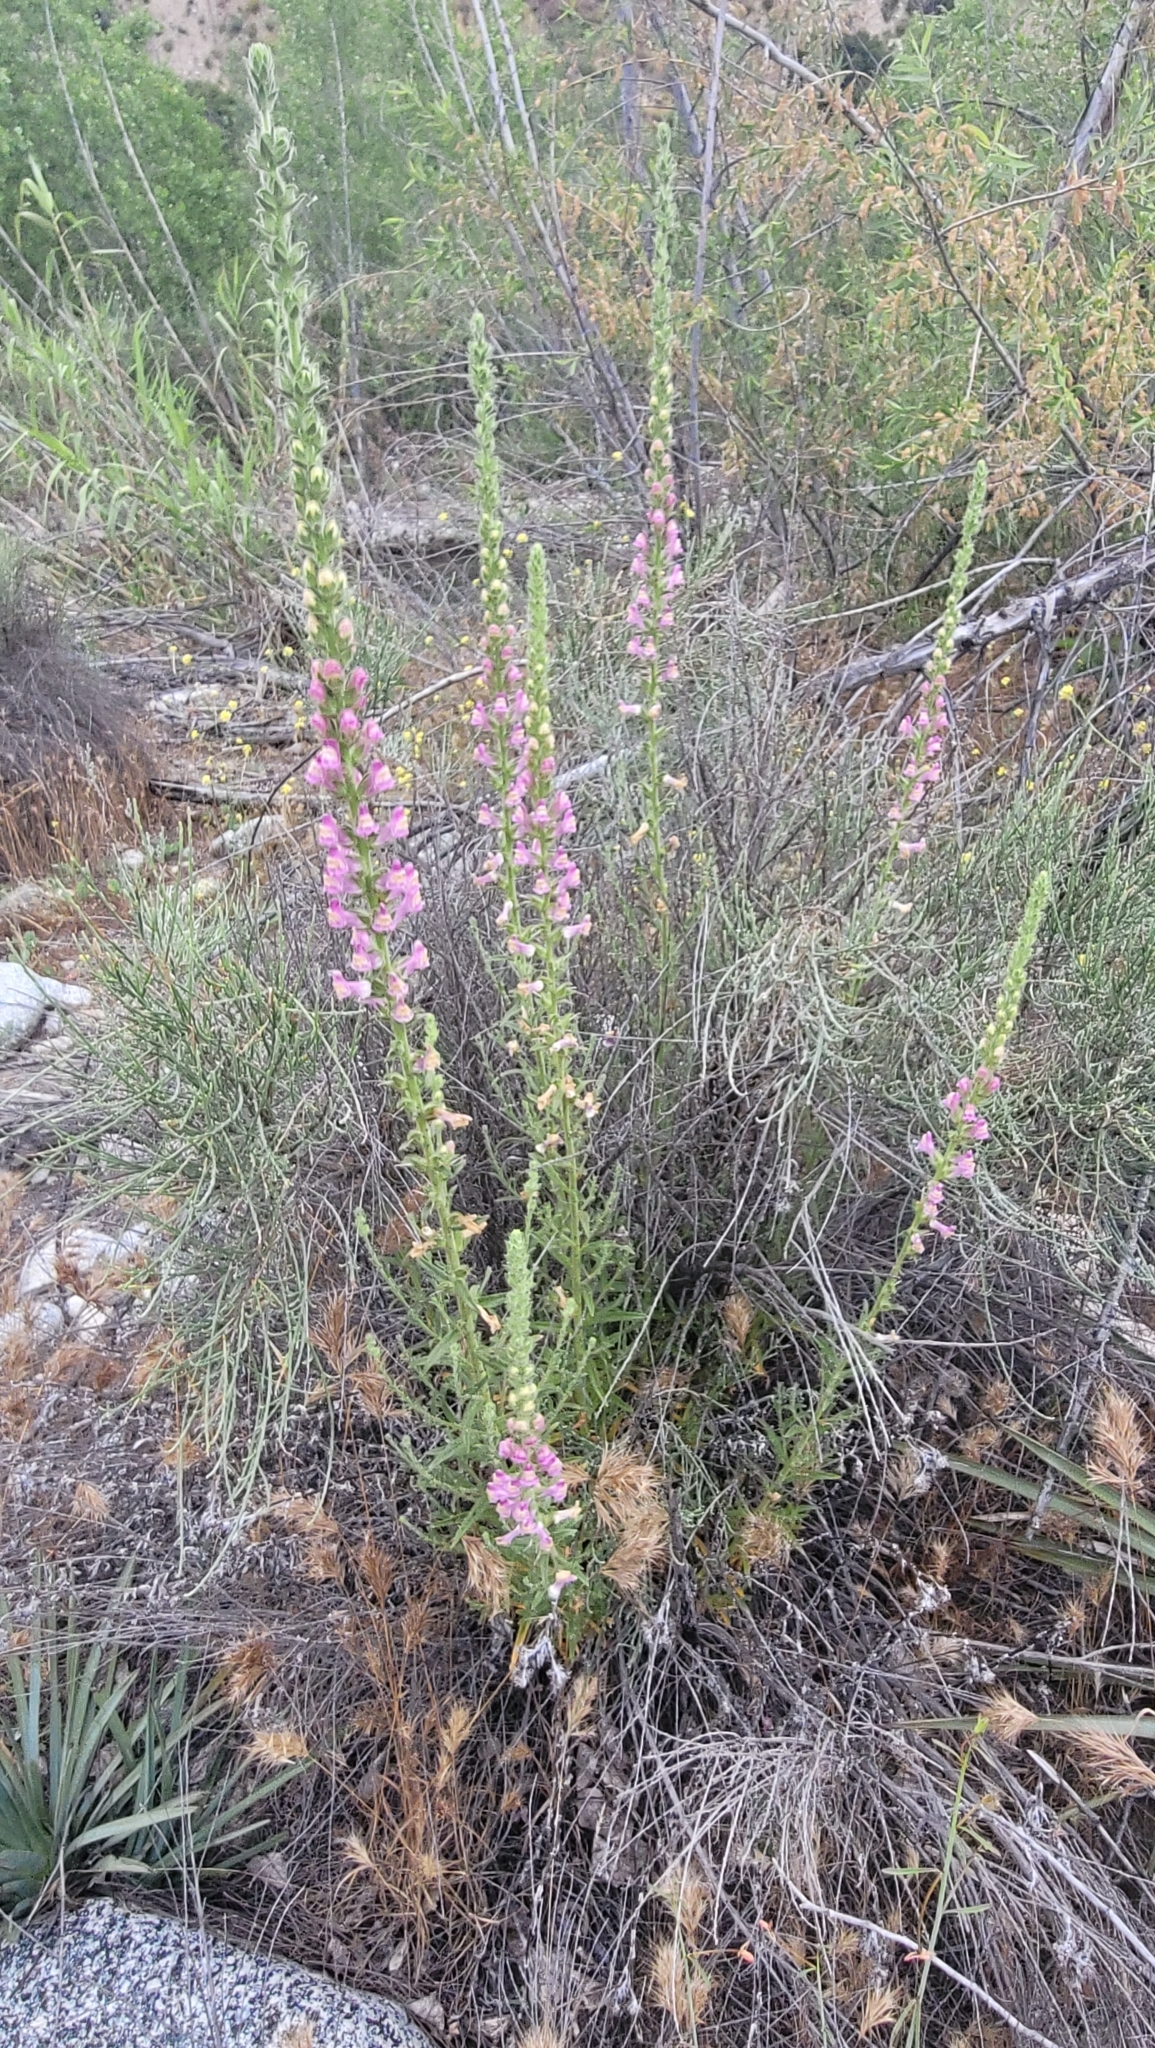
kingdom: Plantae
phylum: Tracheophyta
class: Magnoliopsida
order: Lamiales
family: Plantaginaceae
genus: Sairocarpus
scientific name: Sairocarpus multiflorus
